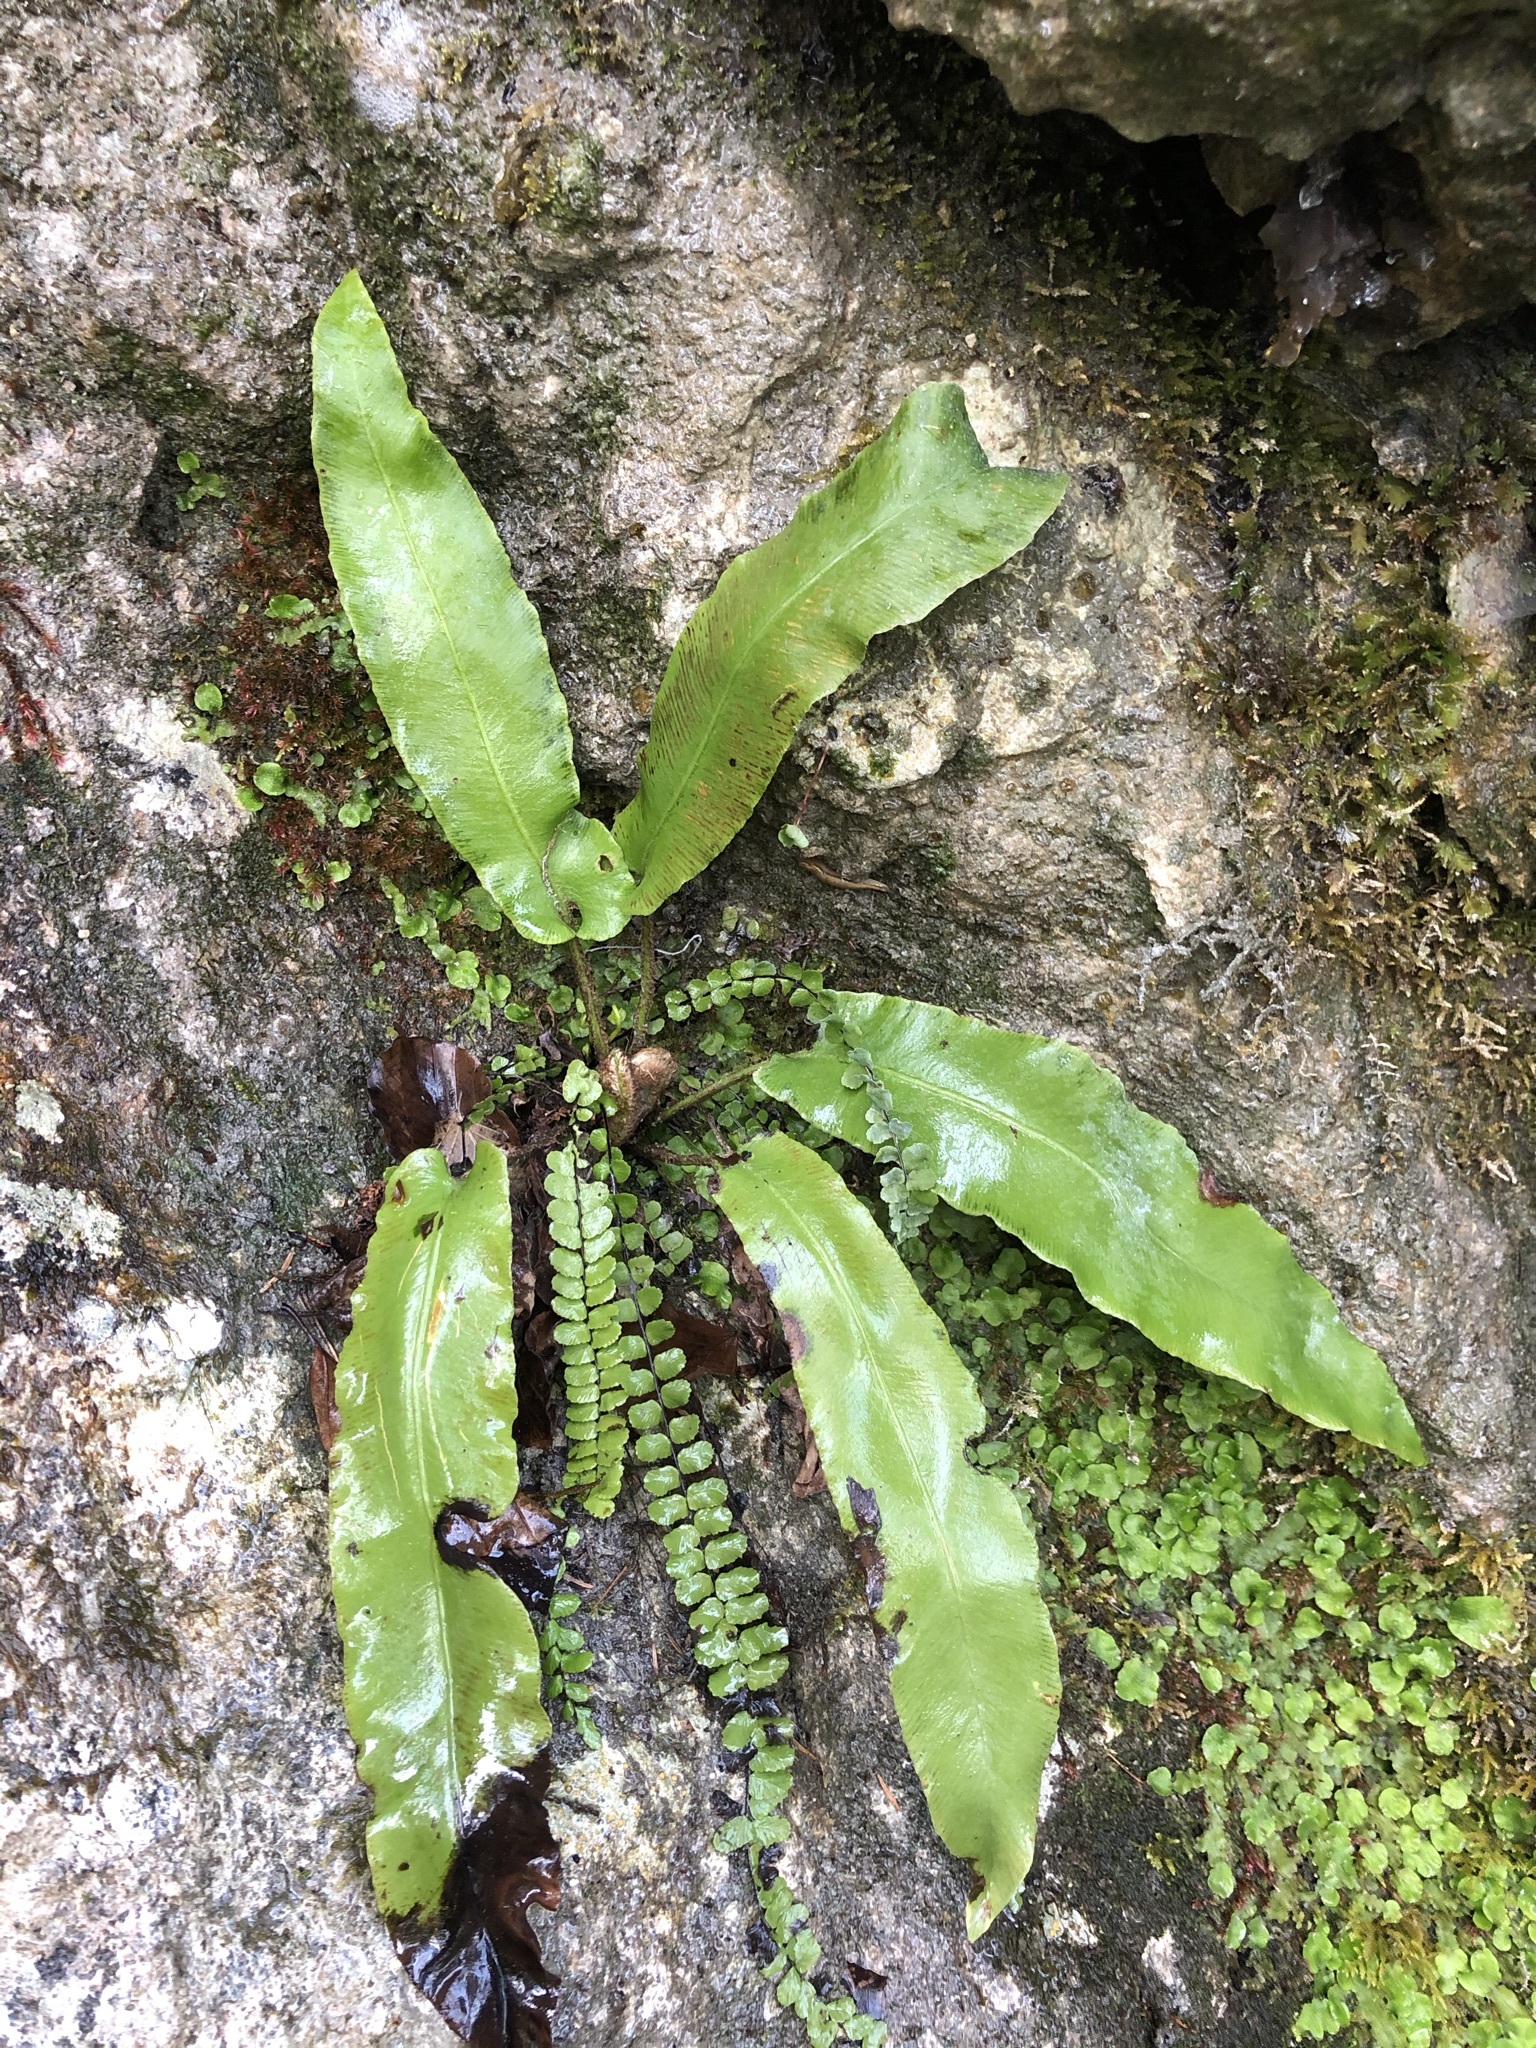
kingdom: Plantae
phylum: Tracheophyta
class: Polypodiopsida
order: Polypodiales
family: Aspleniaceae
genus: Asplenium
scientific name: Asplenium scolopendrium
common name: Hart's-tongue fern
